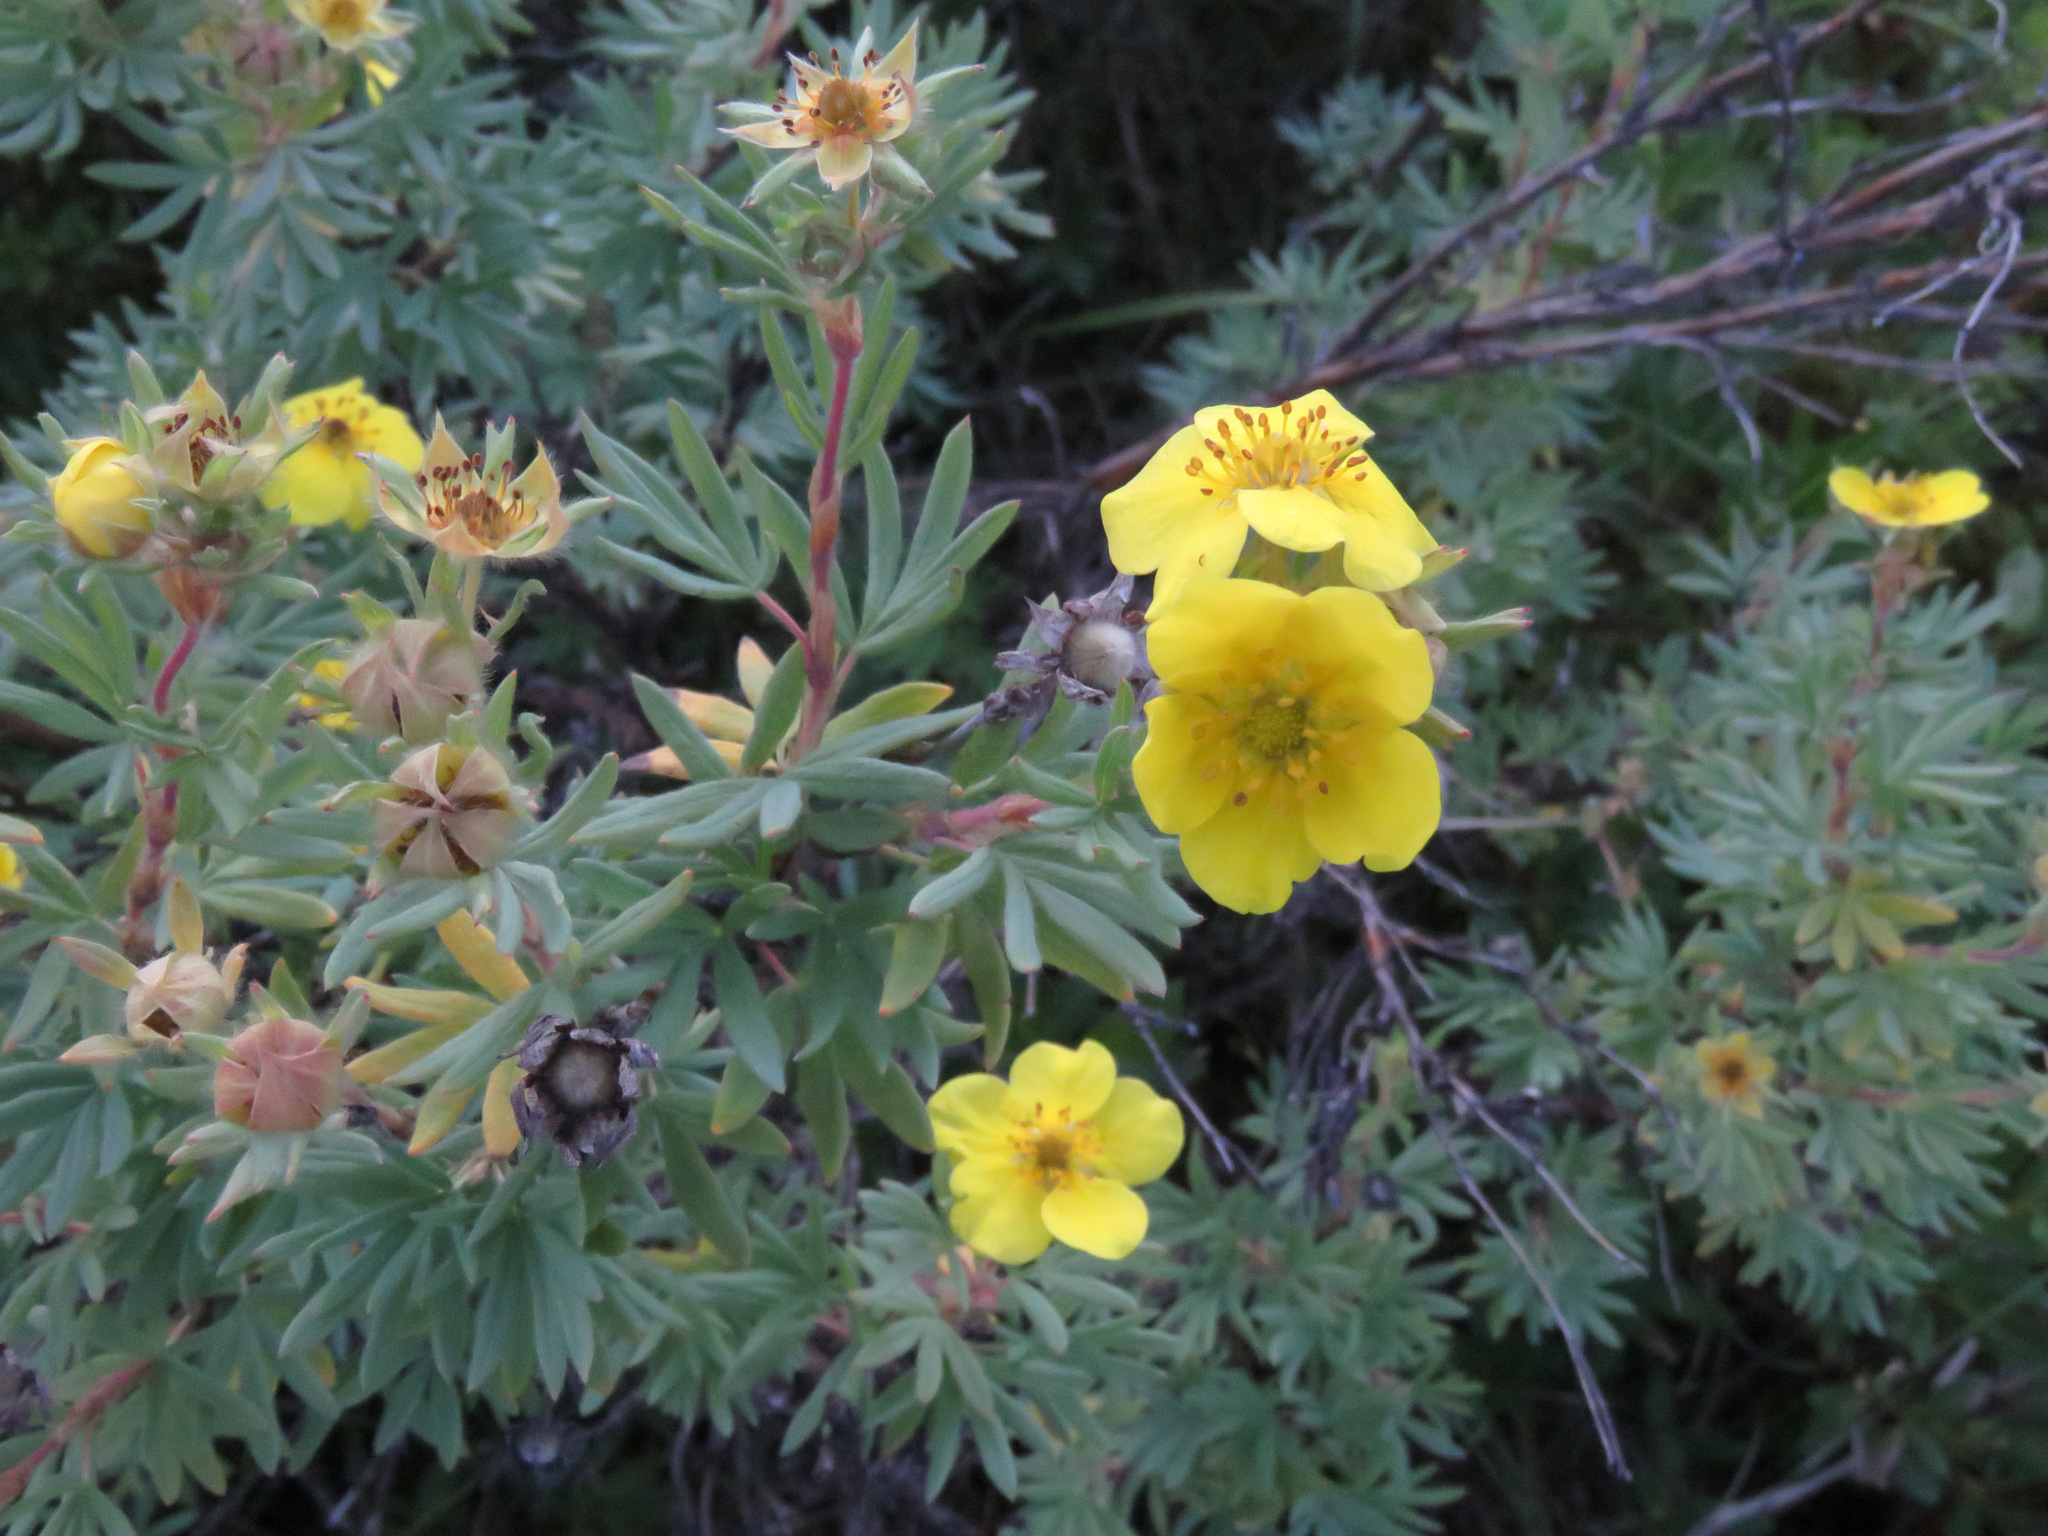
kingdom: Plantae
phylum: Tracheophyta
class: Magnoliopsida
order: Rosales
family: Rosaceae
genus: Dasiphora
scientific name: Dasiphora fruticosa
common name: Shrubby cinquefoil
